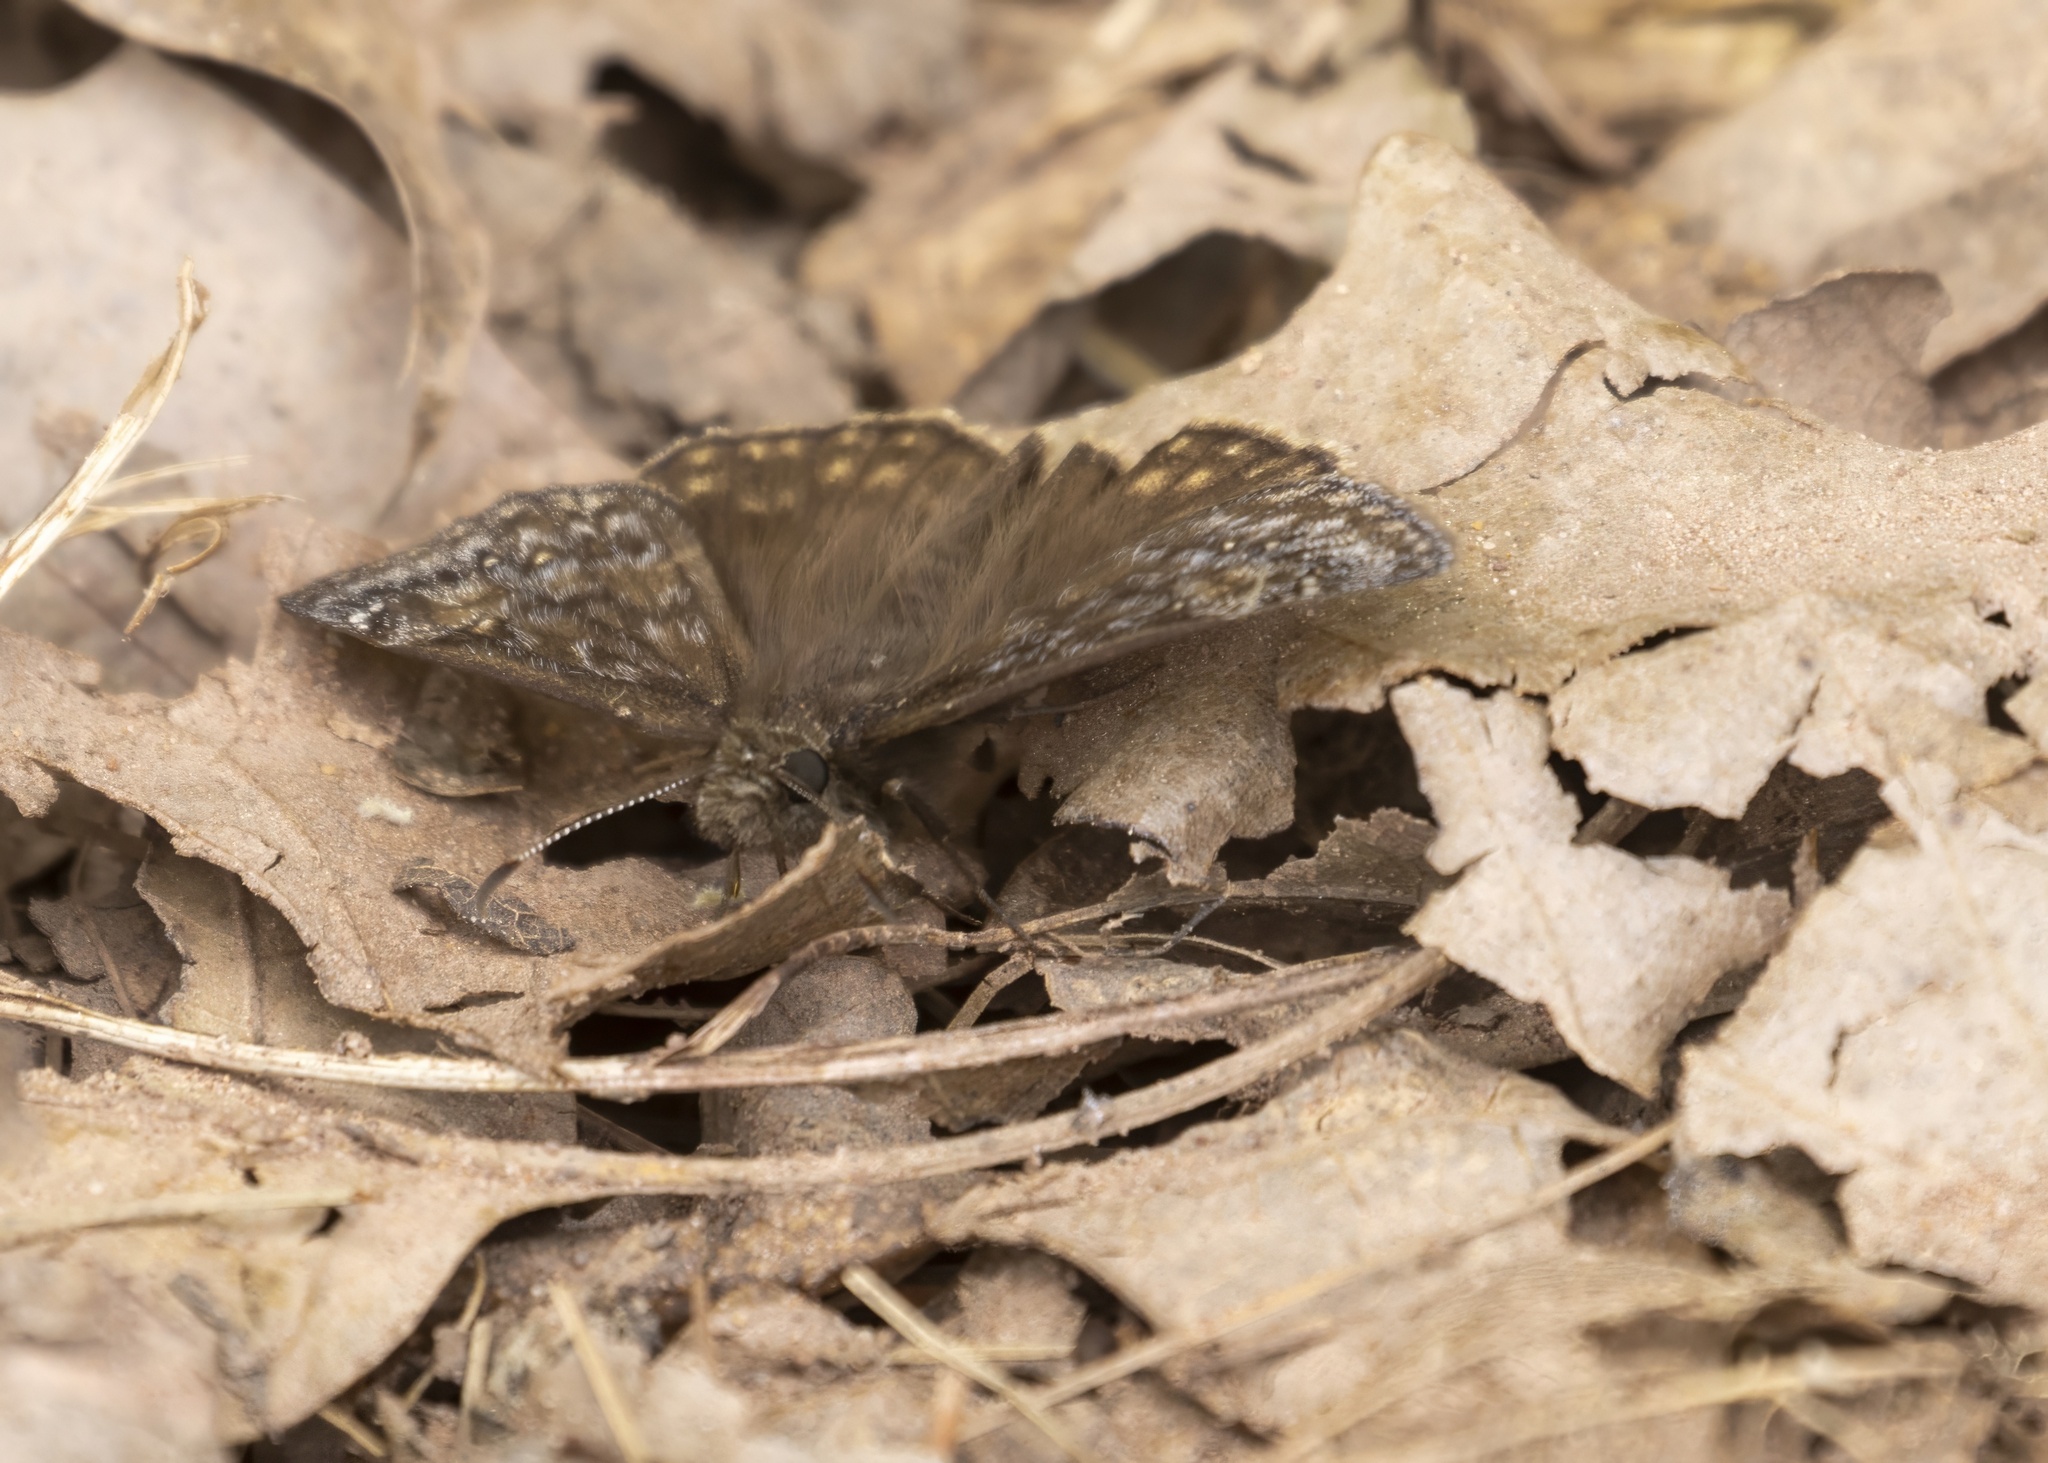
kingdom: Animalia
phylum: Arthropoda
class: Insecta
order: Lepidoptera
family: Hesperiidae
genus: Erynnis
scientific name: Erynnis juvenalis
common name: Juvenal's duskywing
